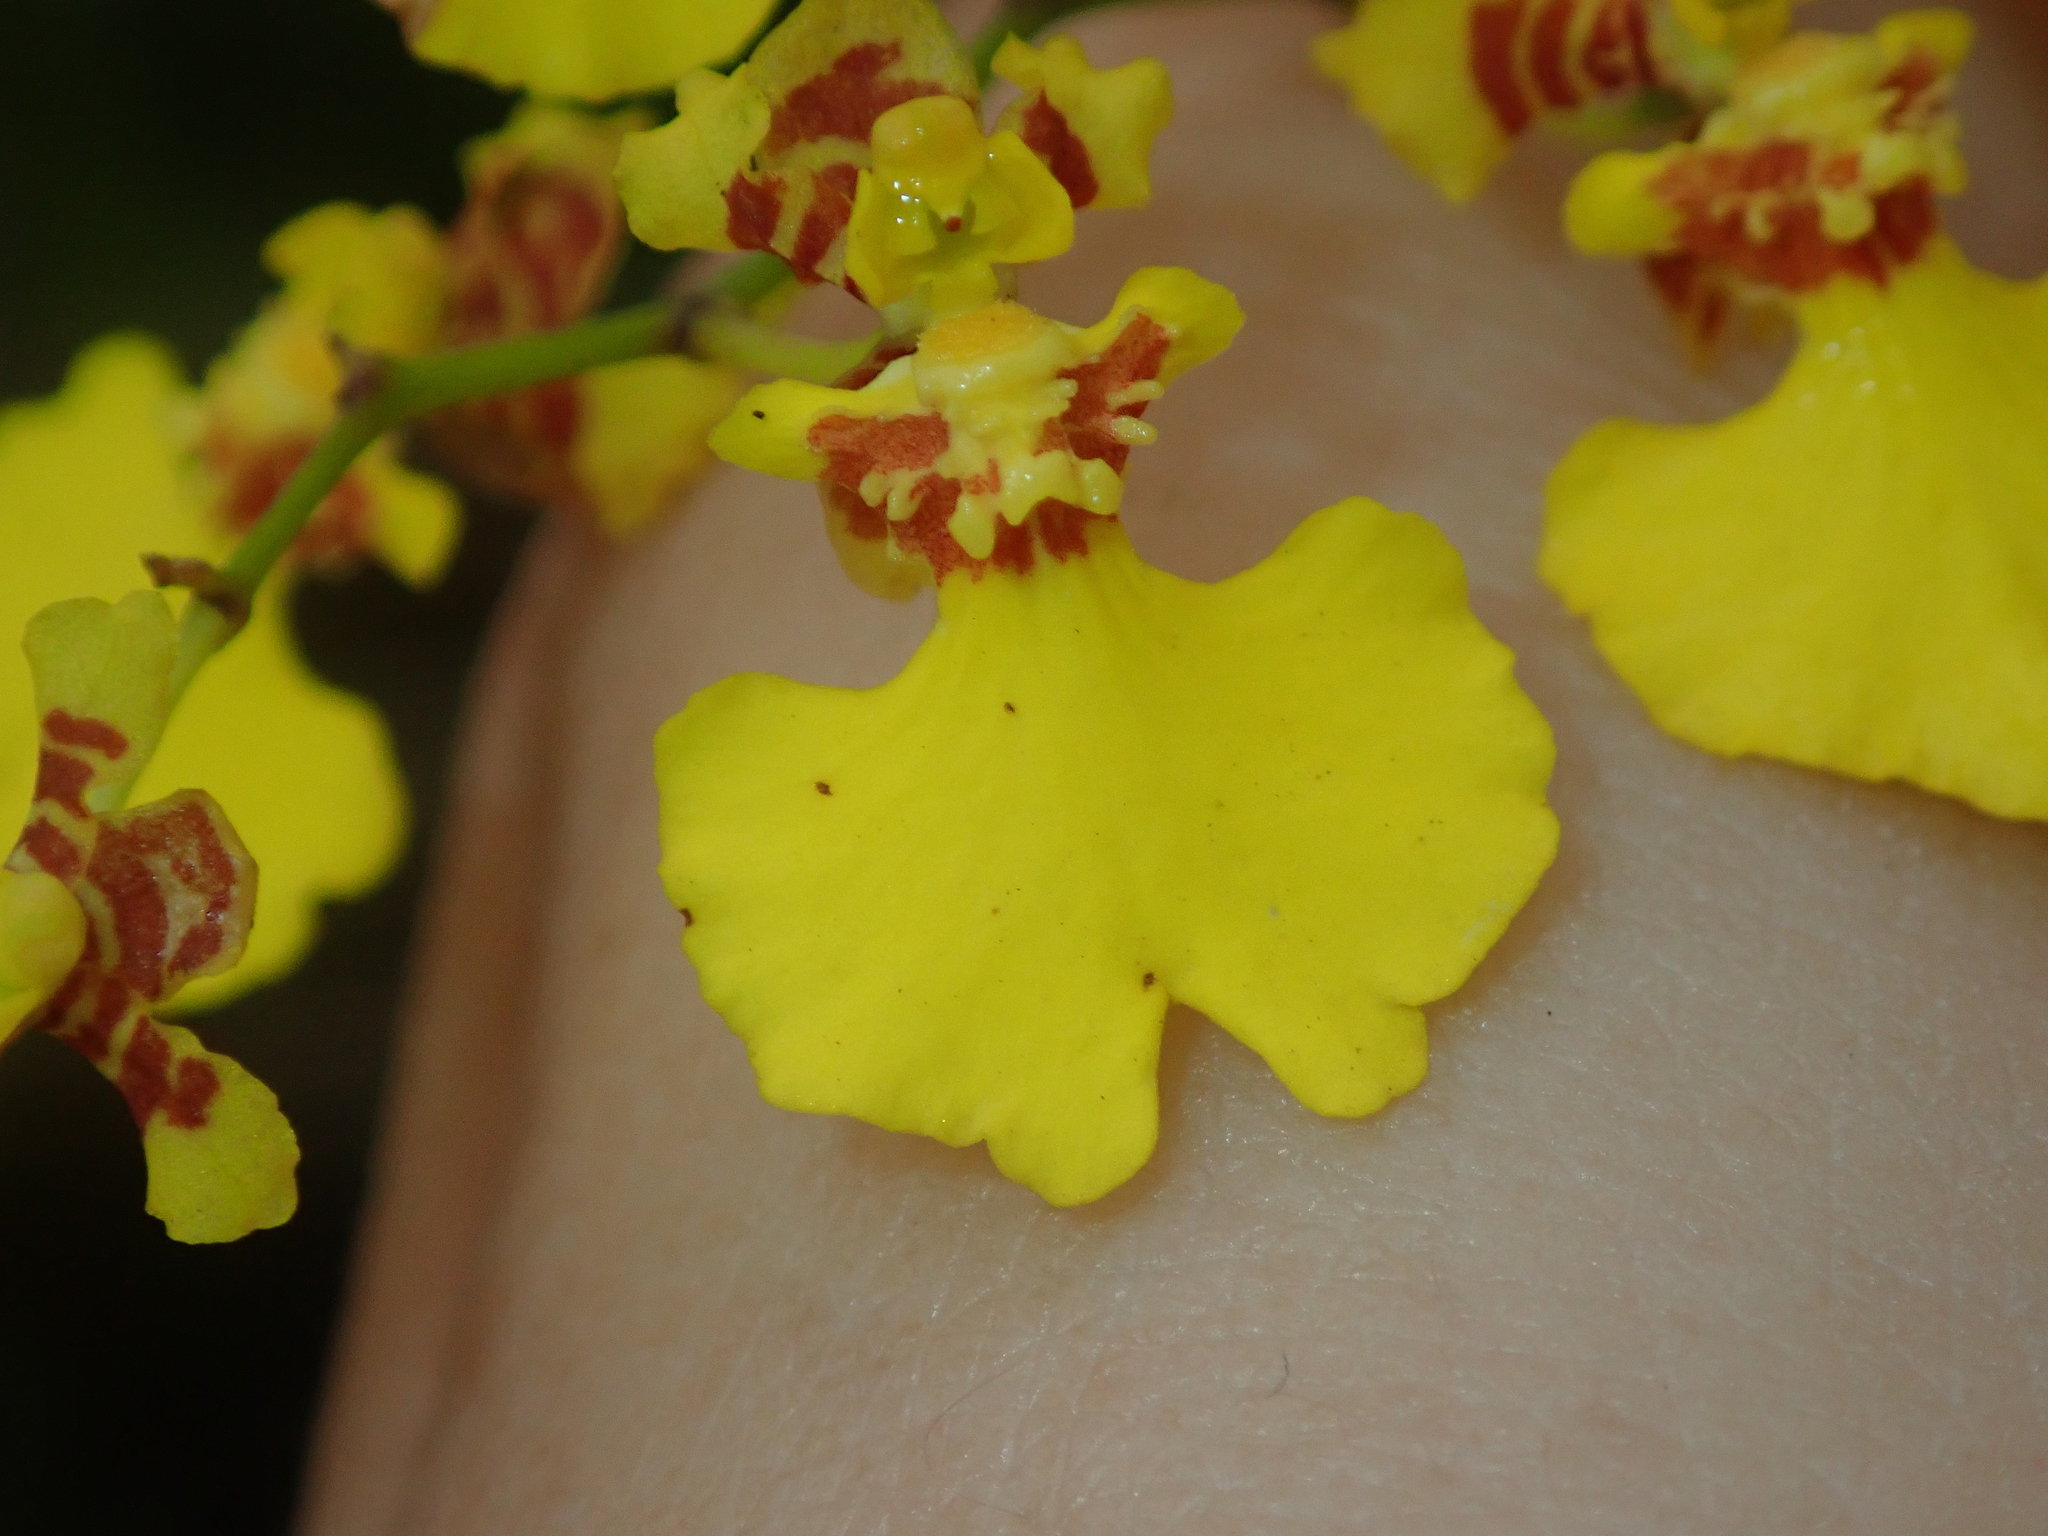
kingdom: Plantae
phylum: Tracheophyta
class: Liliopsida
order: Asparagales
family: Orchidaceae
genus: Gomesa
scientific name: Gomesa flexuosa
